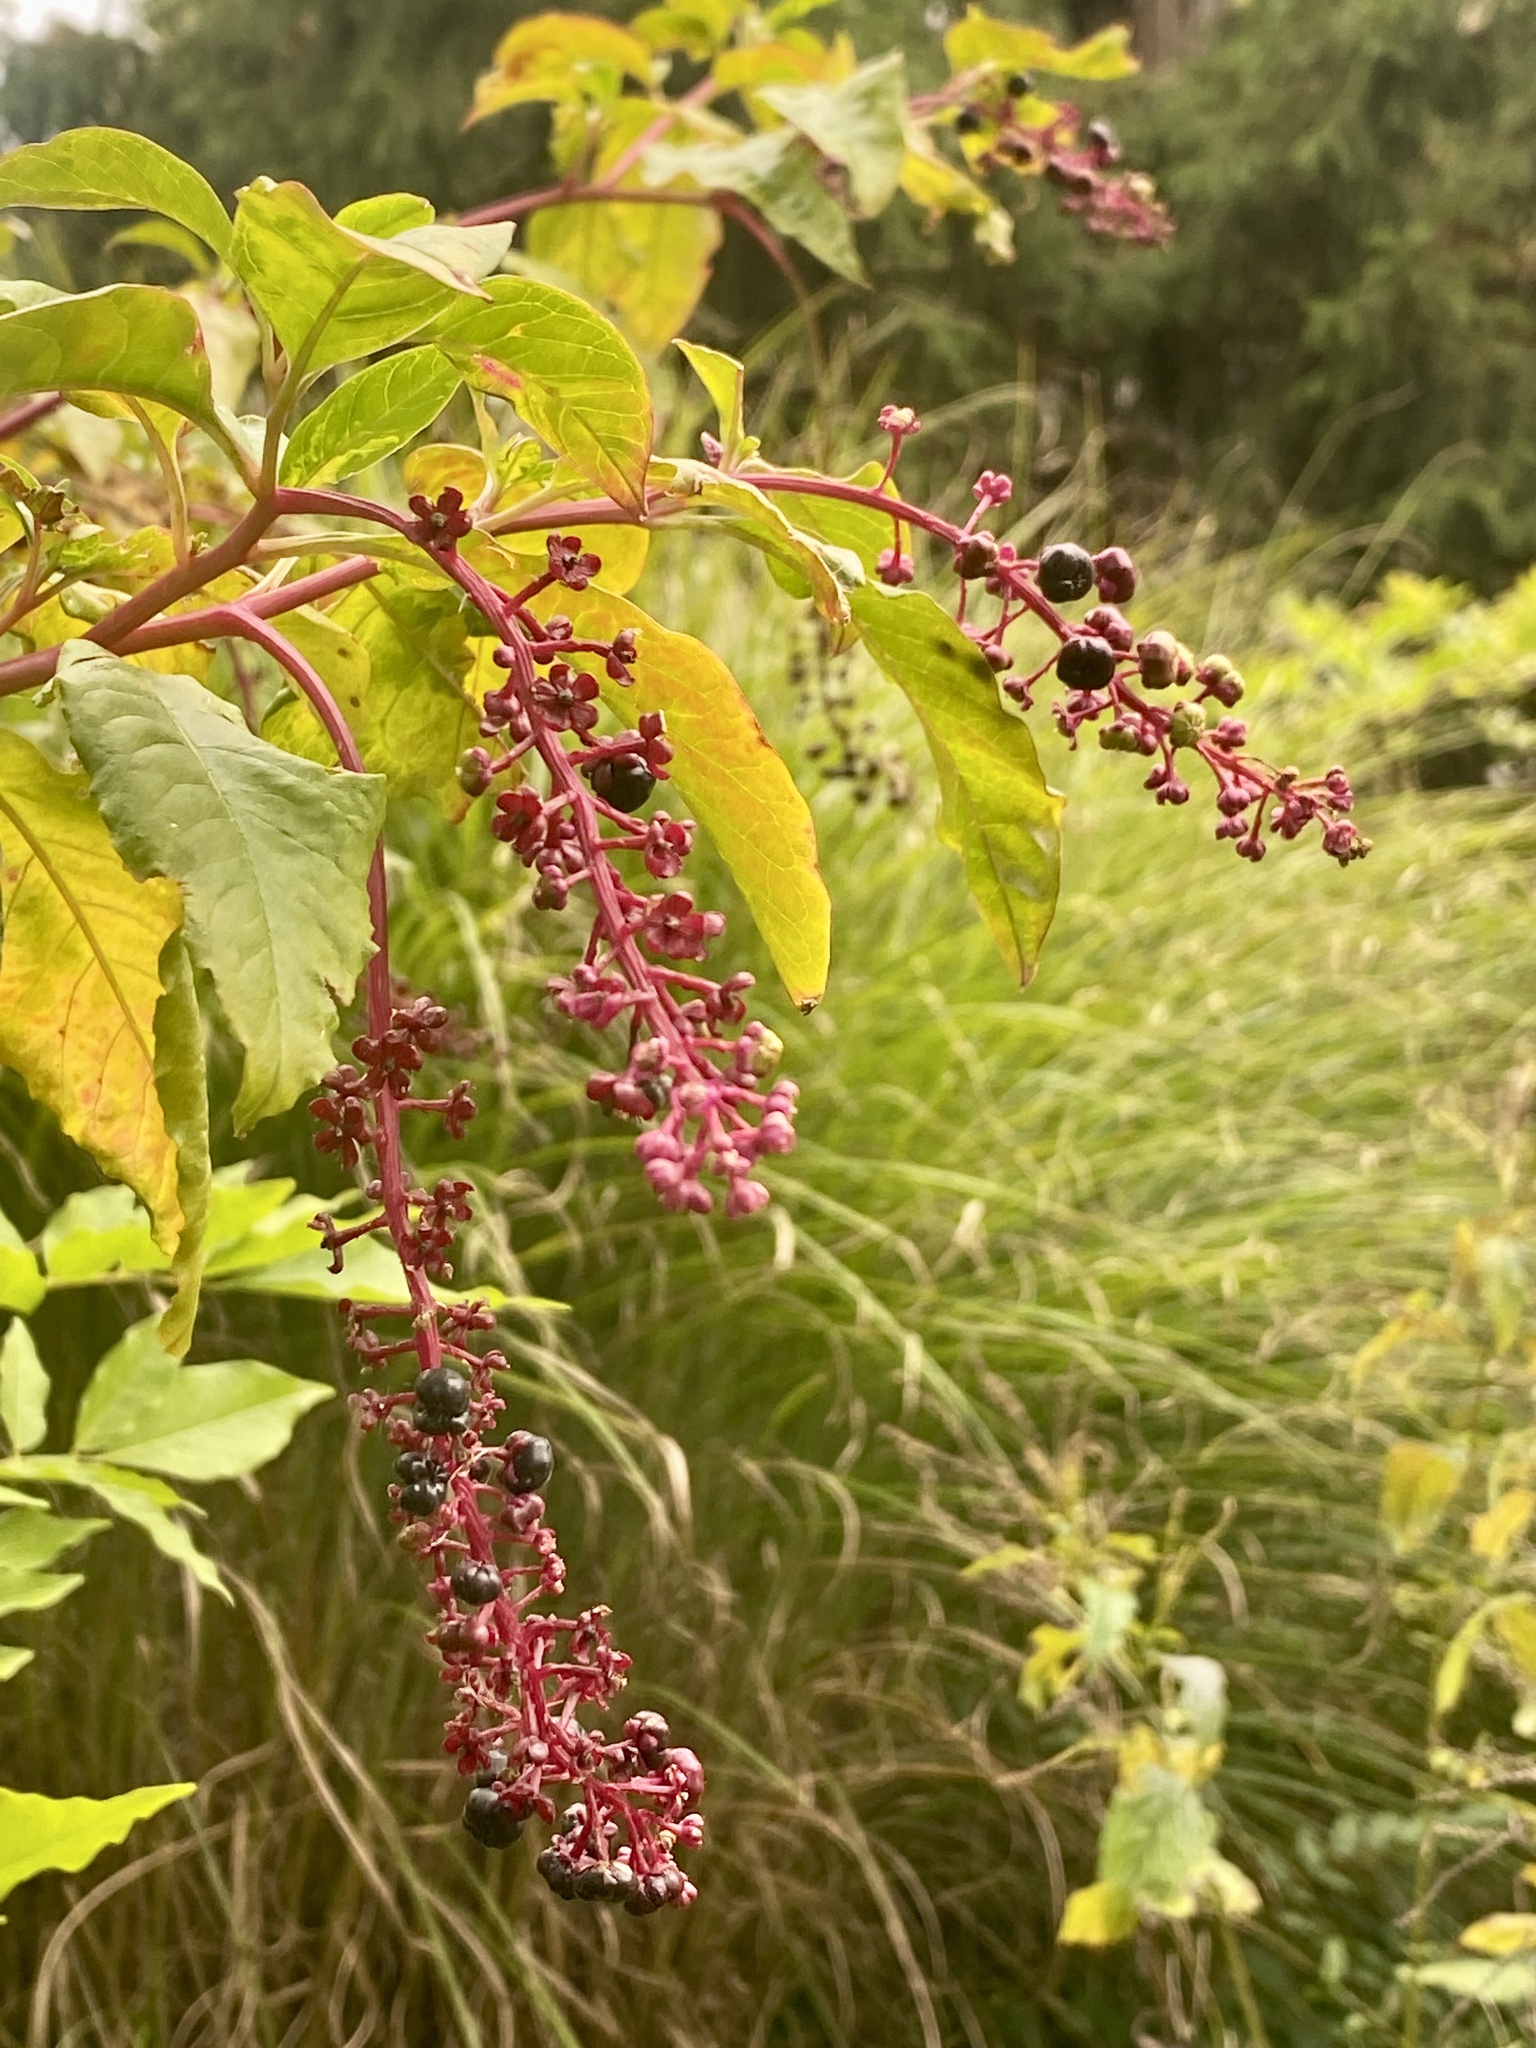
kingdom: Plantae
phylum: Tracheophyta
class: Magnoliopsida
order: Caryophyllales
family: Phytolaccaceae
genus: Phytolacca
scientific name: Phytolacca americana
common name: American pokeweed
